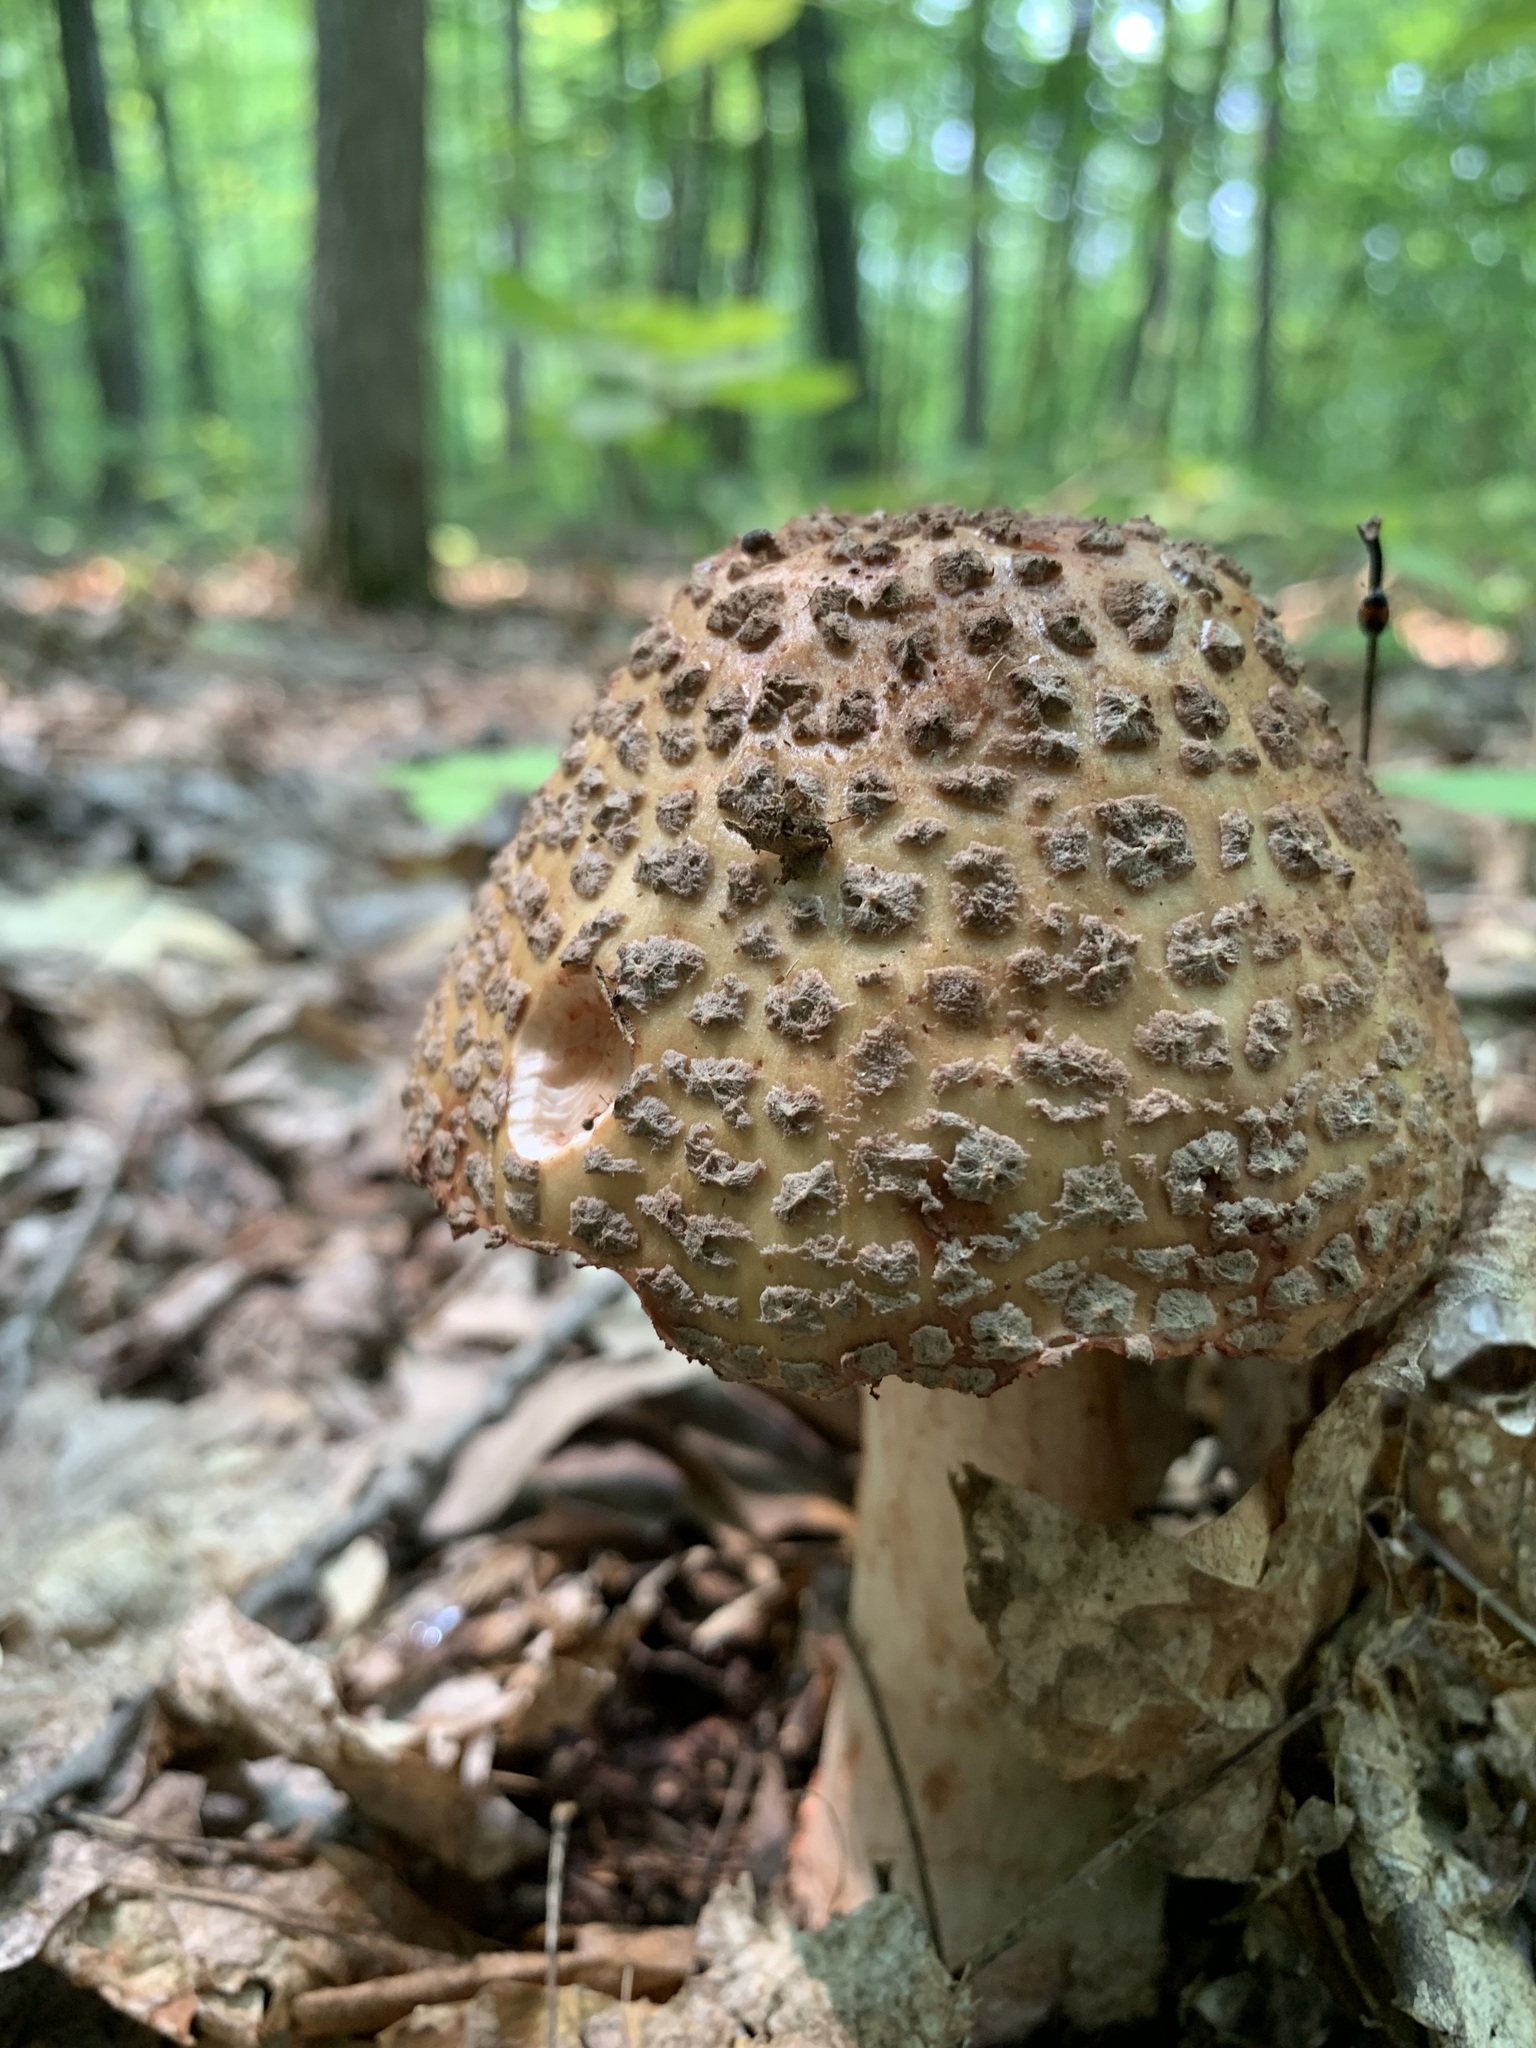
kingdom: Fungi
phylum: Basidiomycota
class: Agaricomycetes
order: Agaricales
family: Amanitaceae
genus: Amanita
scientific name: Amanita
